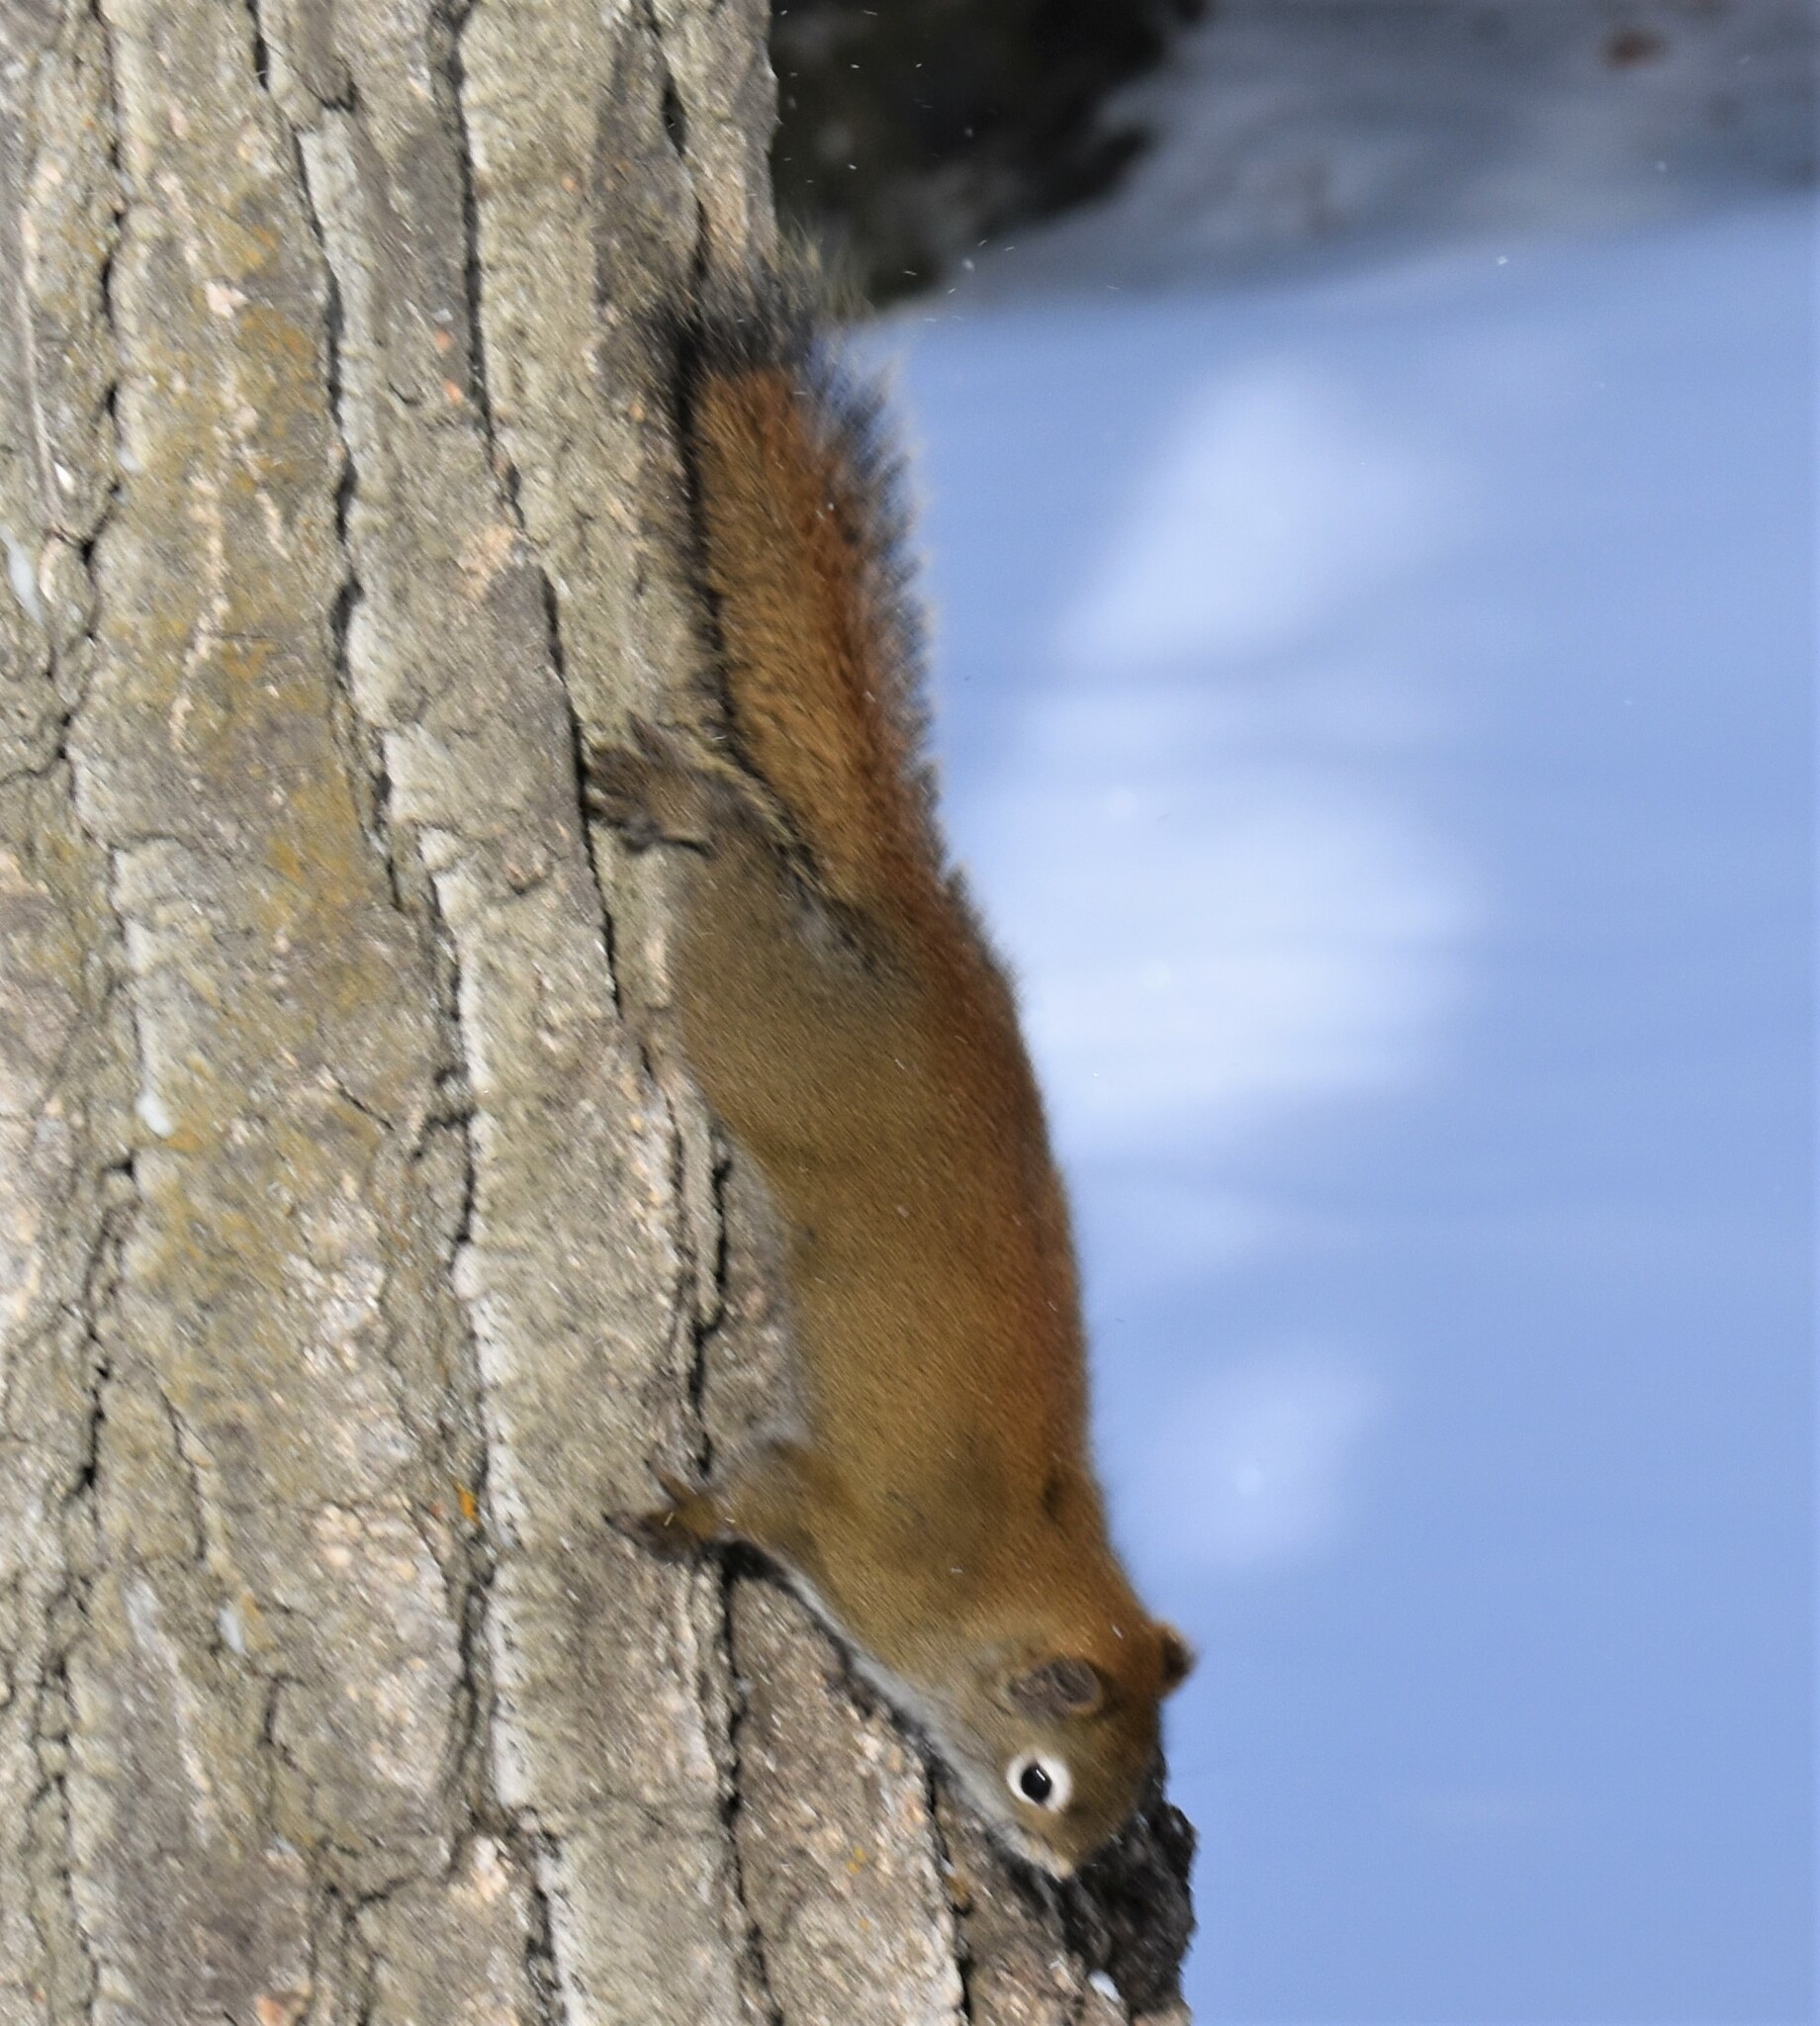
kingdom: Animalia
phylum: Chordata
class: Mammalia
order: Rodentia
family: Sciuridae
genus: Tamiasciurus
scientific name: Tamiasciurus hudsonicus
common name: Red squirrel
